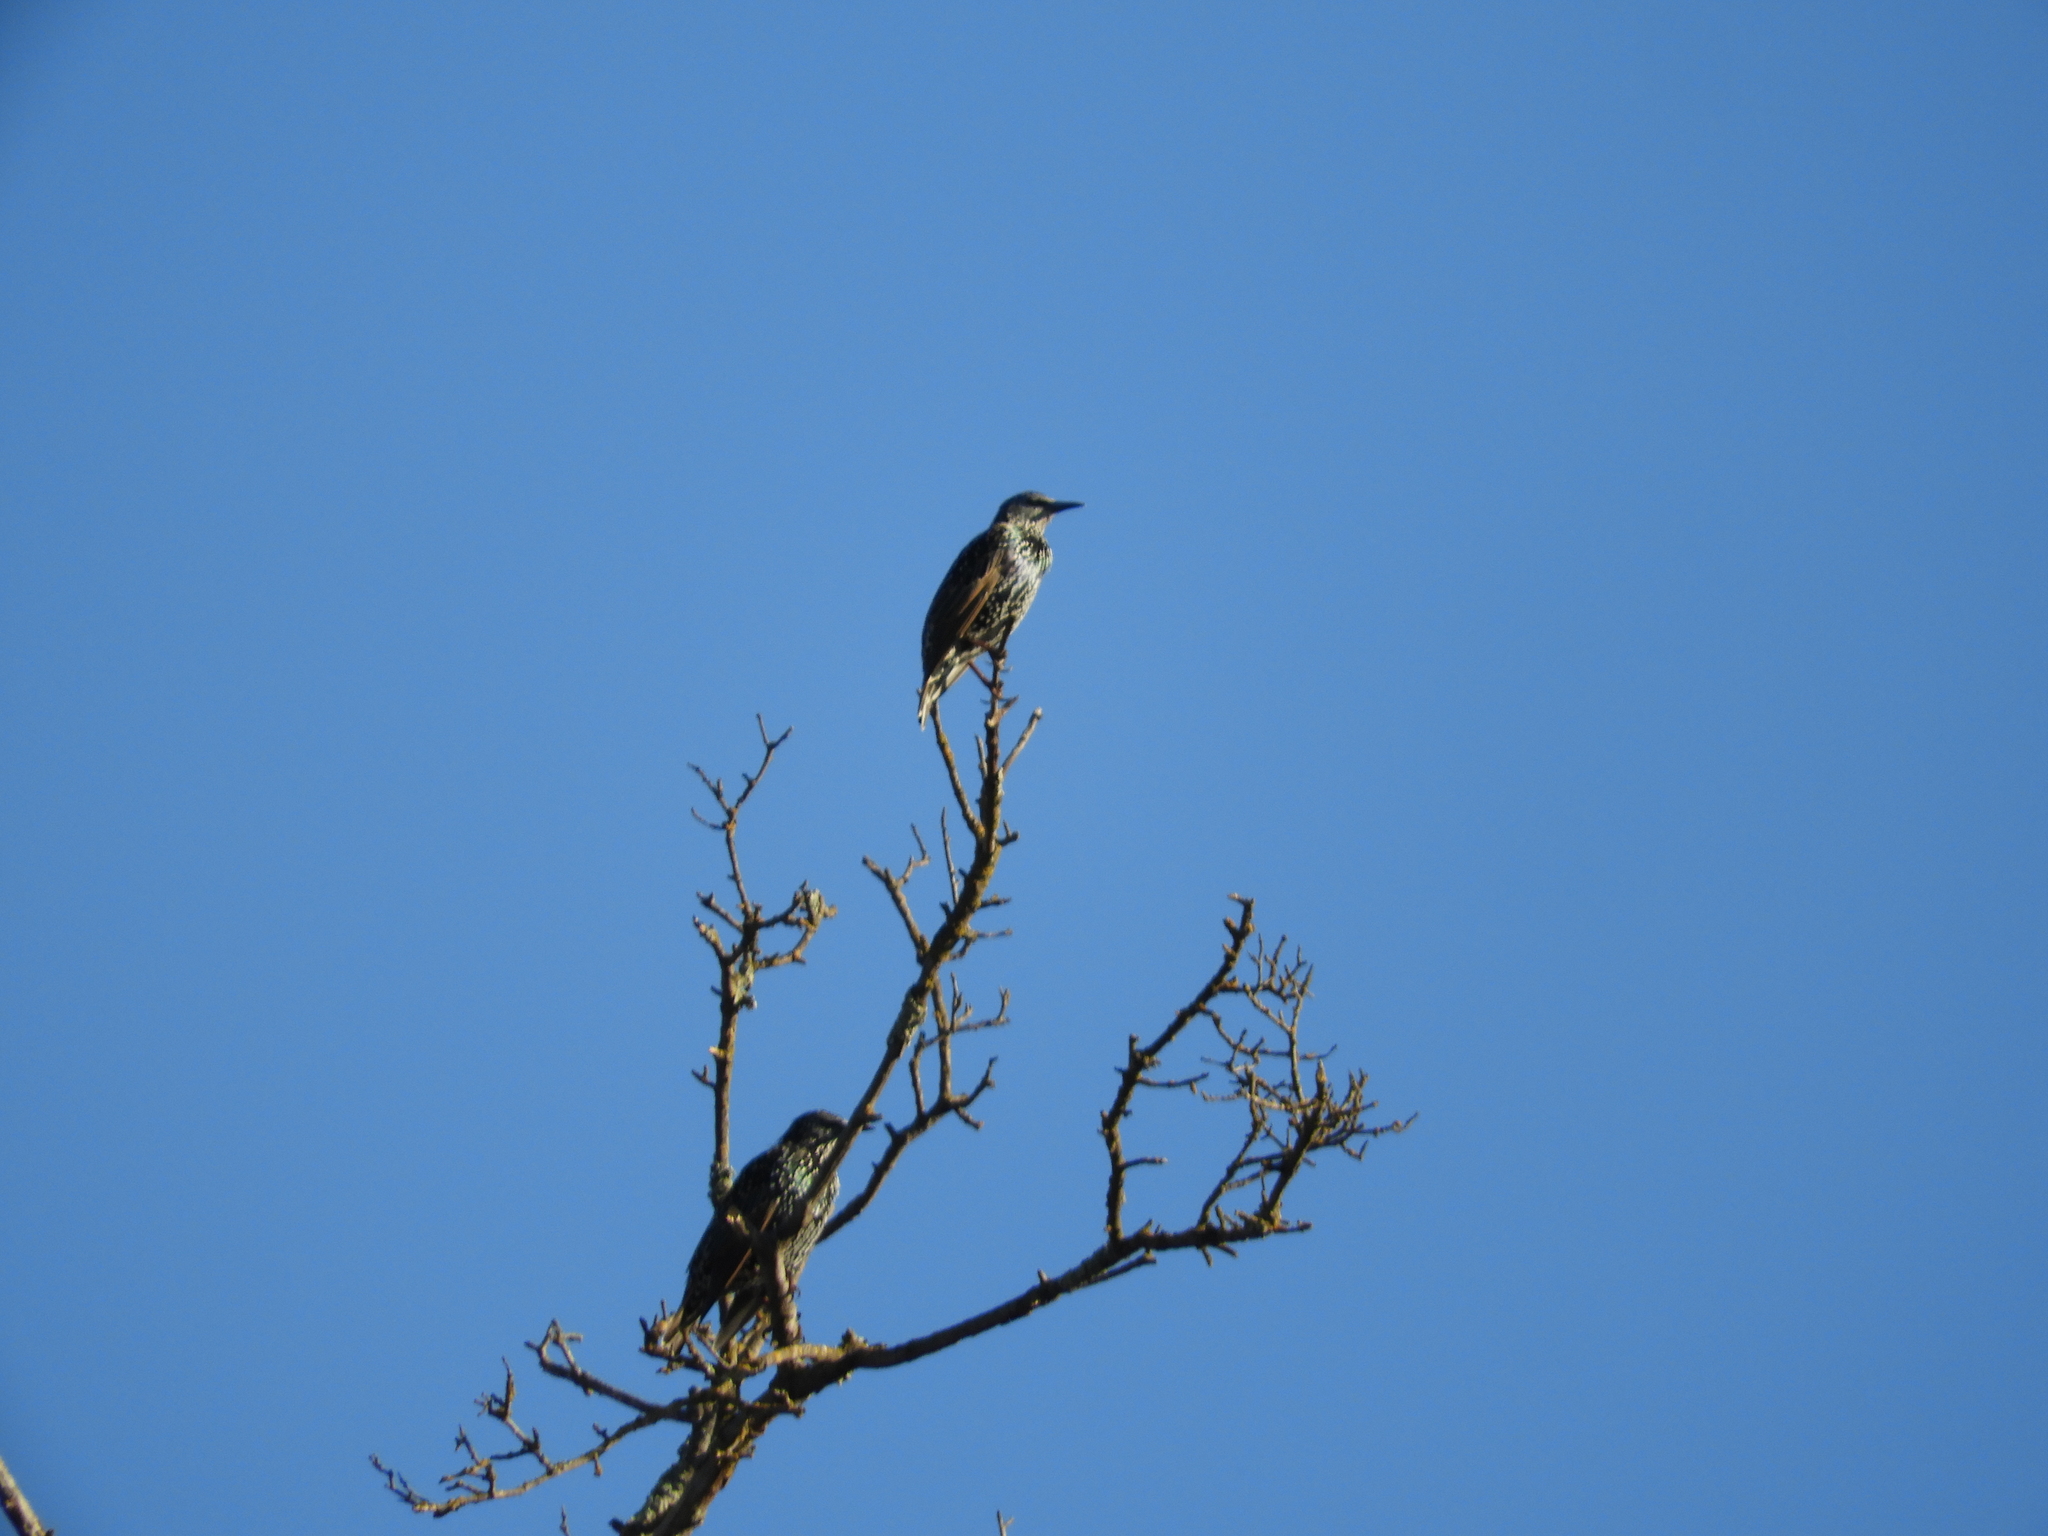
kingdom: Animalia
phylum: Chordata
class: Aves
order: Passeriformes
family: Sturnidae
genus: Sturnus
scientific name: Sturnus vulgaris
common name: Common starling
